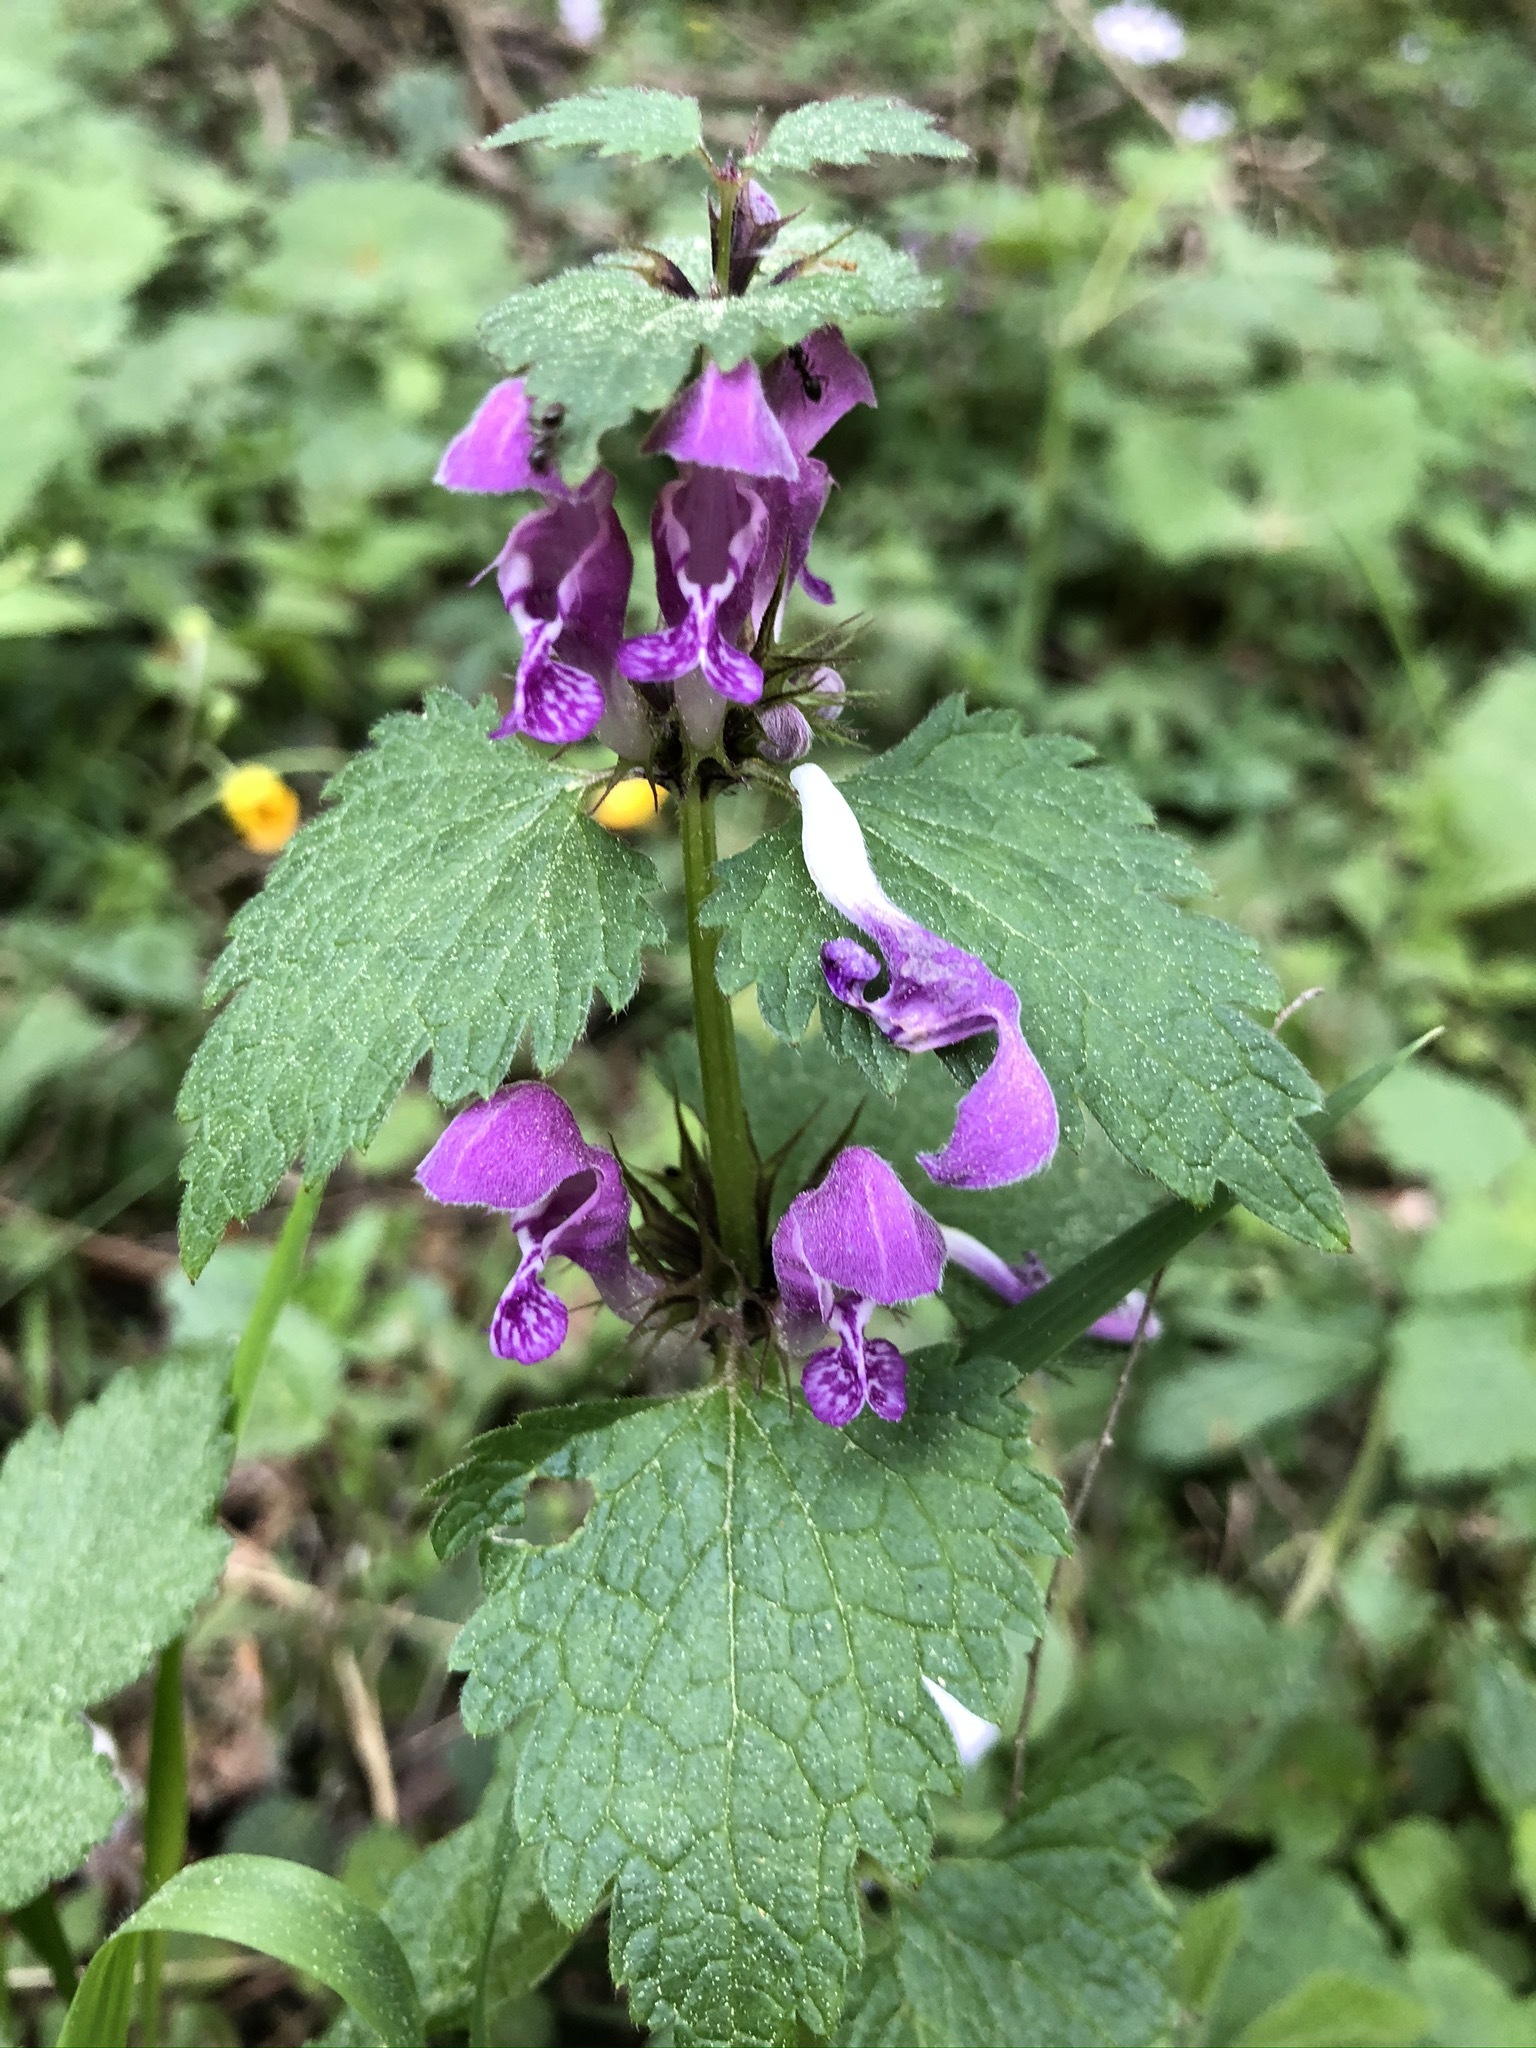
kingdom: Plantae
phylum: Tracheophyta
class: Magnoliopsida
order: Lamiales
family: Lamiaceae
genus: Lamium
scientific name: Lamium maculatum
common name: Spotted dead-nettle
